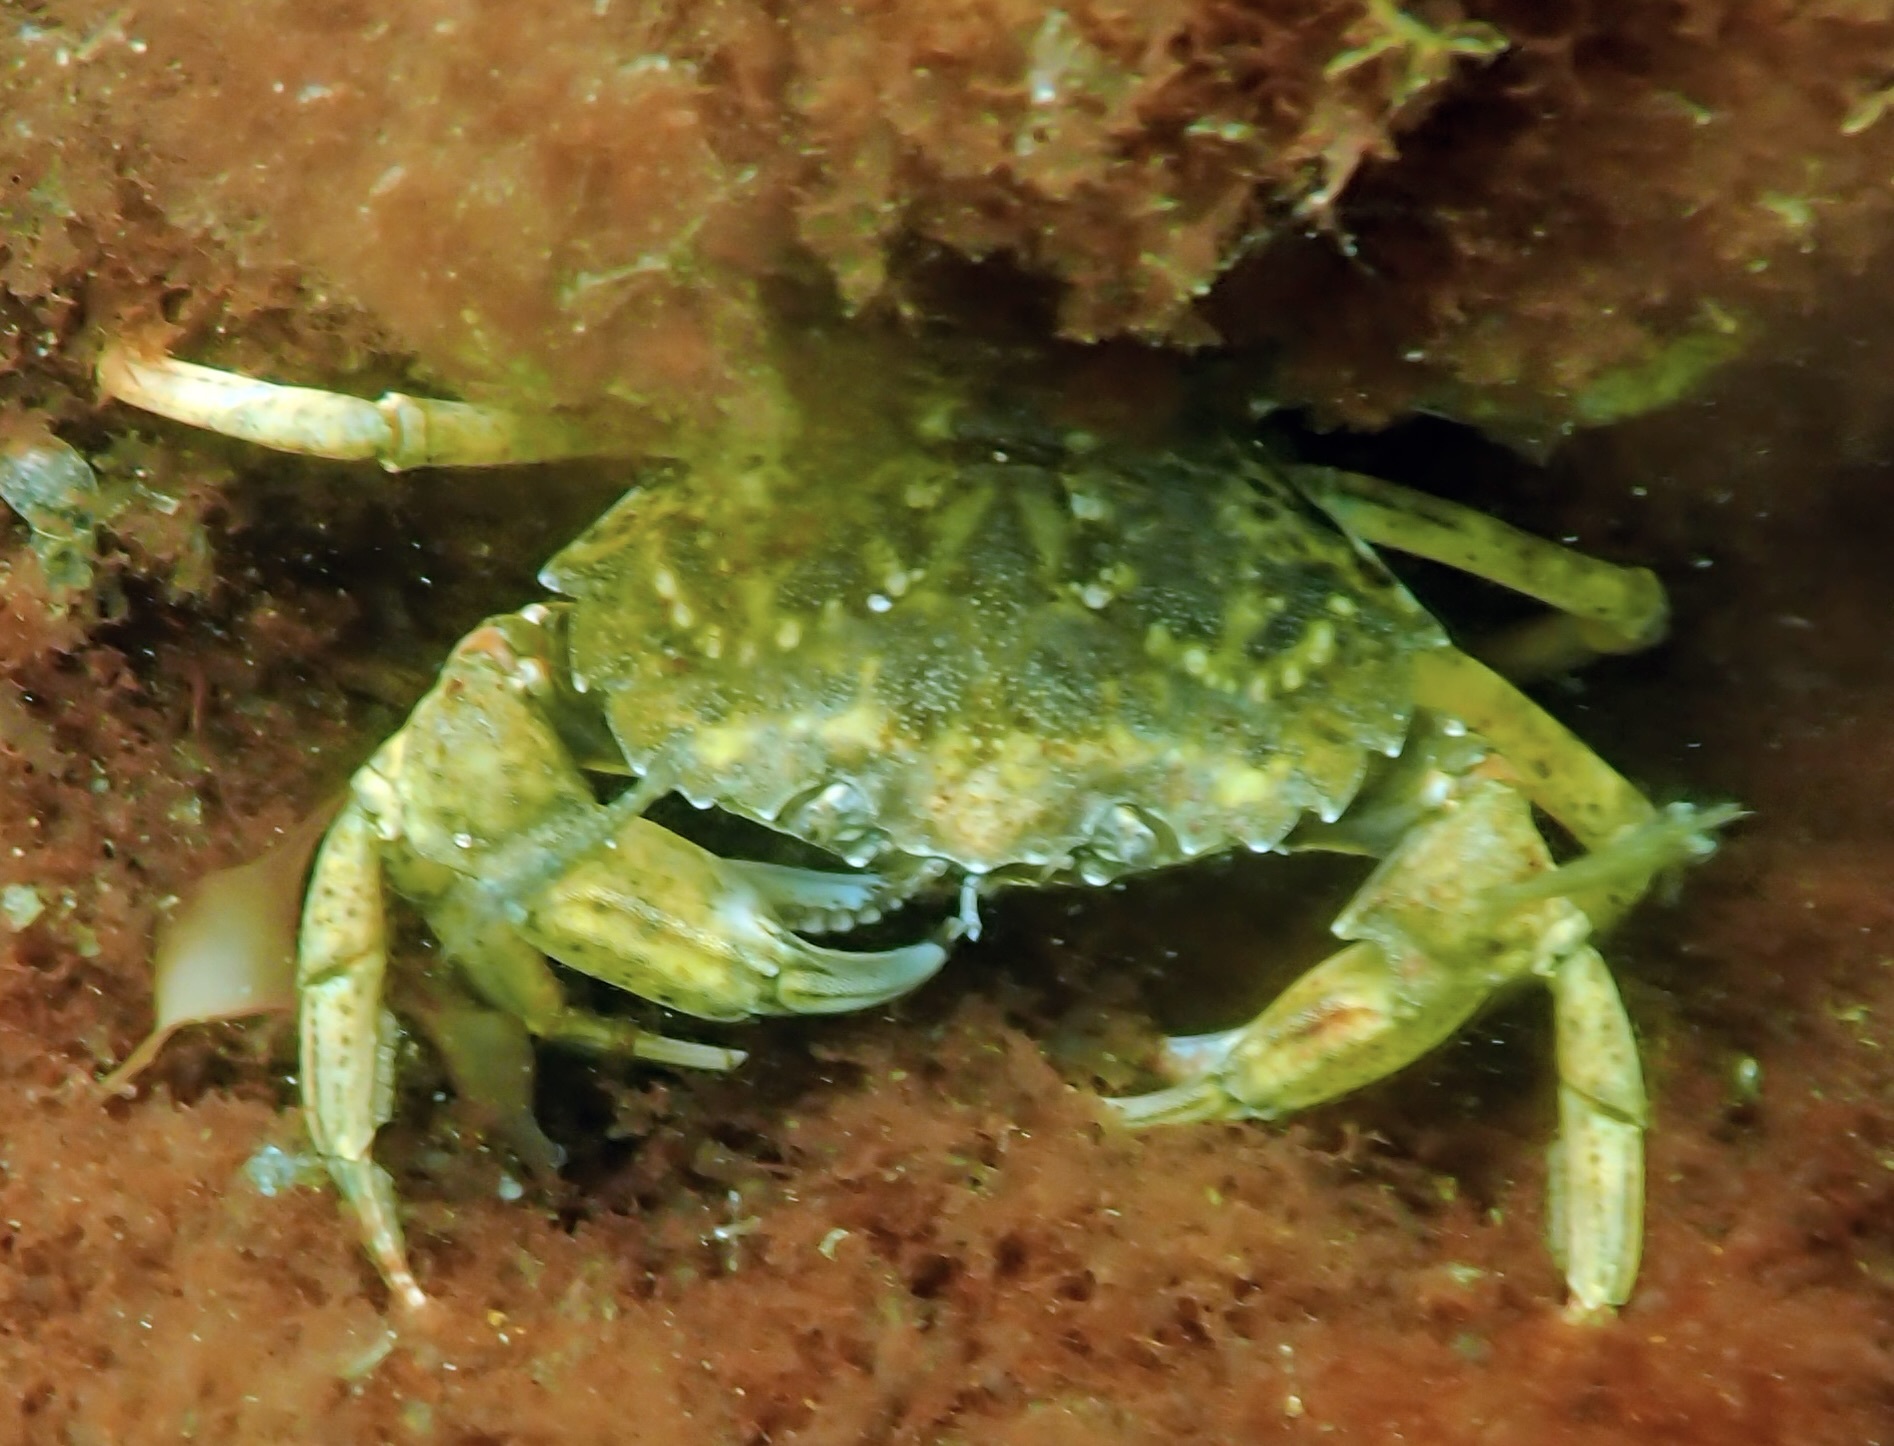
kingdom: Animalia
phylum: Arthropoda
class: Malacostraca
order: Decapoda
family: Carcinidae
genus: Carcinus
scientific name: Carcinus maenas
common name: European green crab
